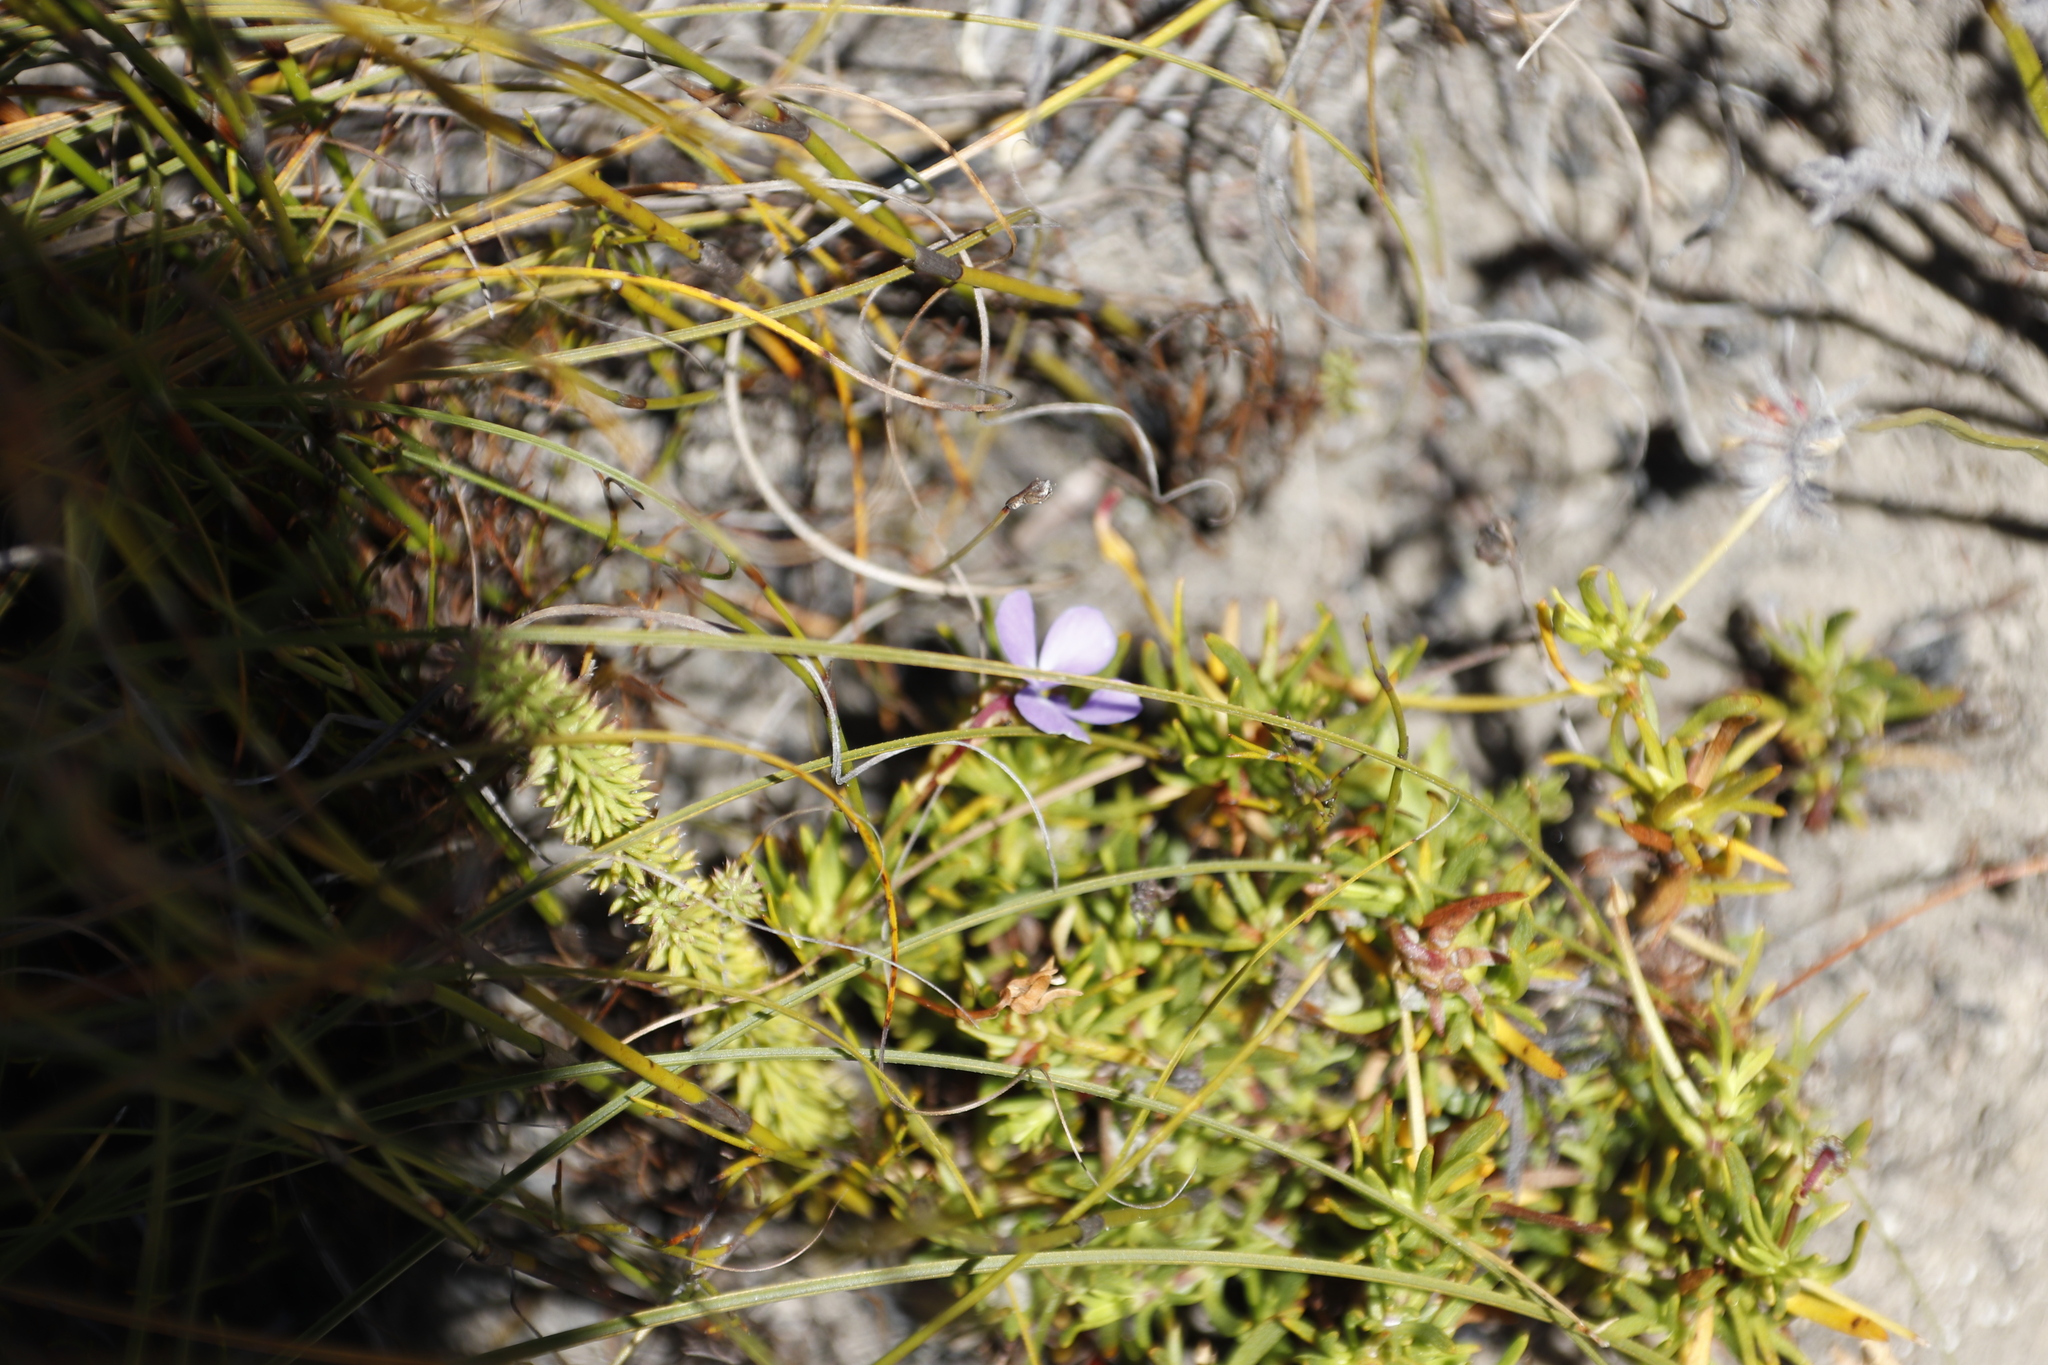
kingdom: Plantae
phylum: Tracheophyta
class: Magnoliopsida
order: Malpighiales
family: Violaceae
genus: Viola
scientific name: Viola decumbens
